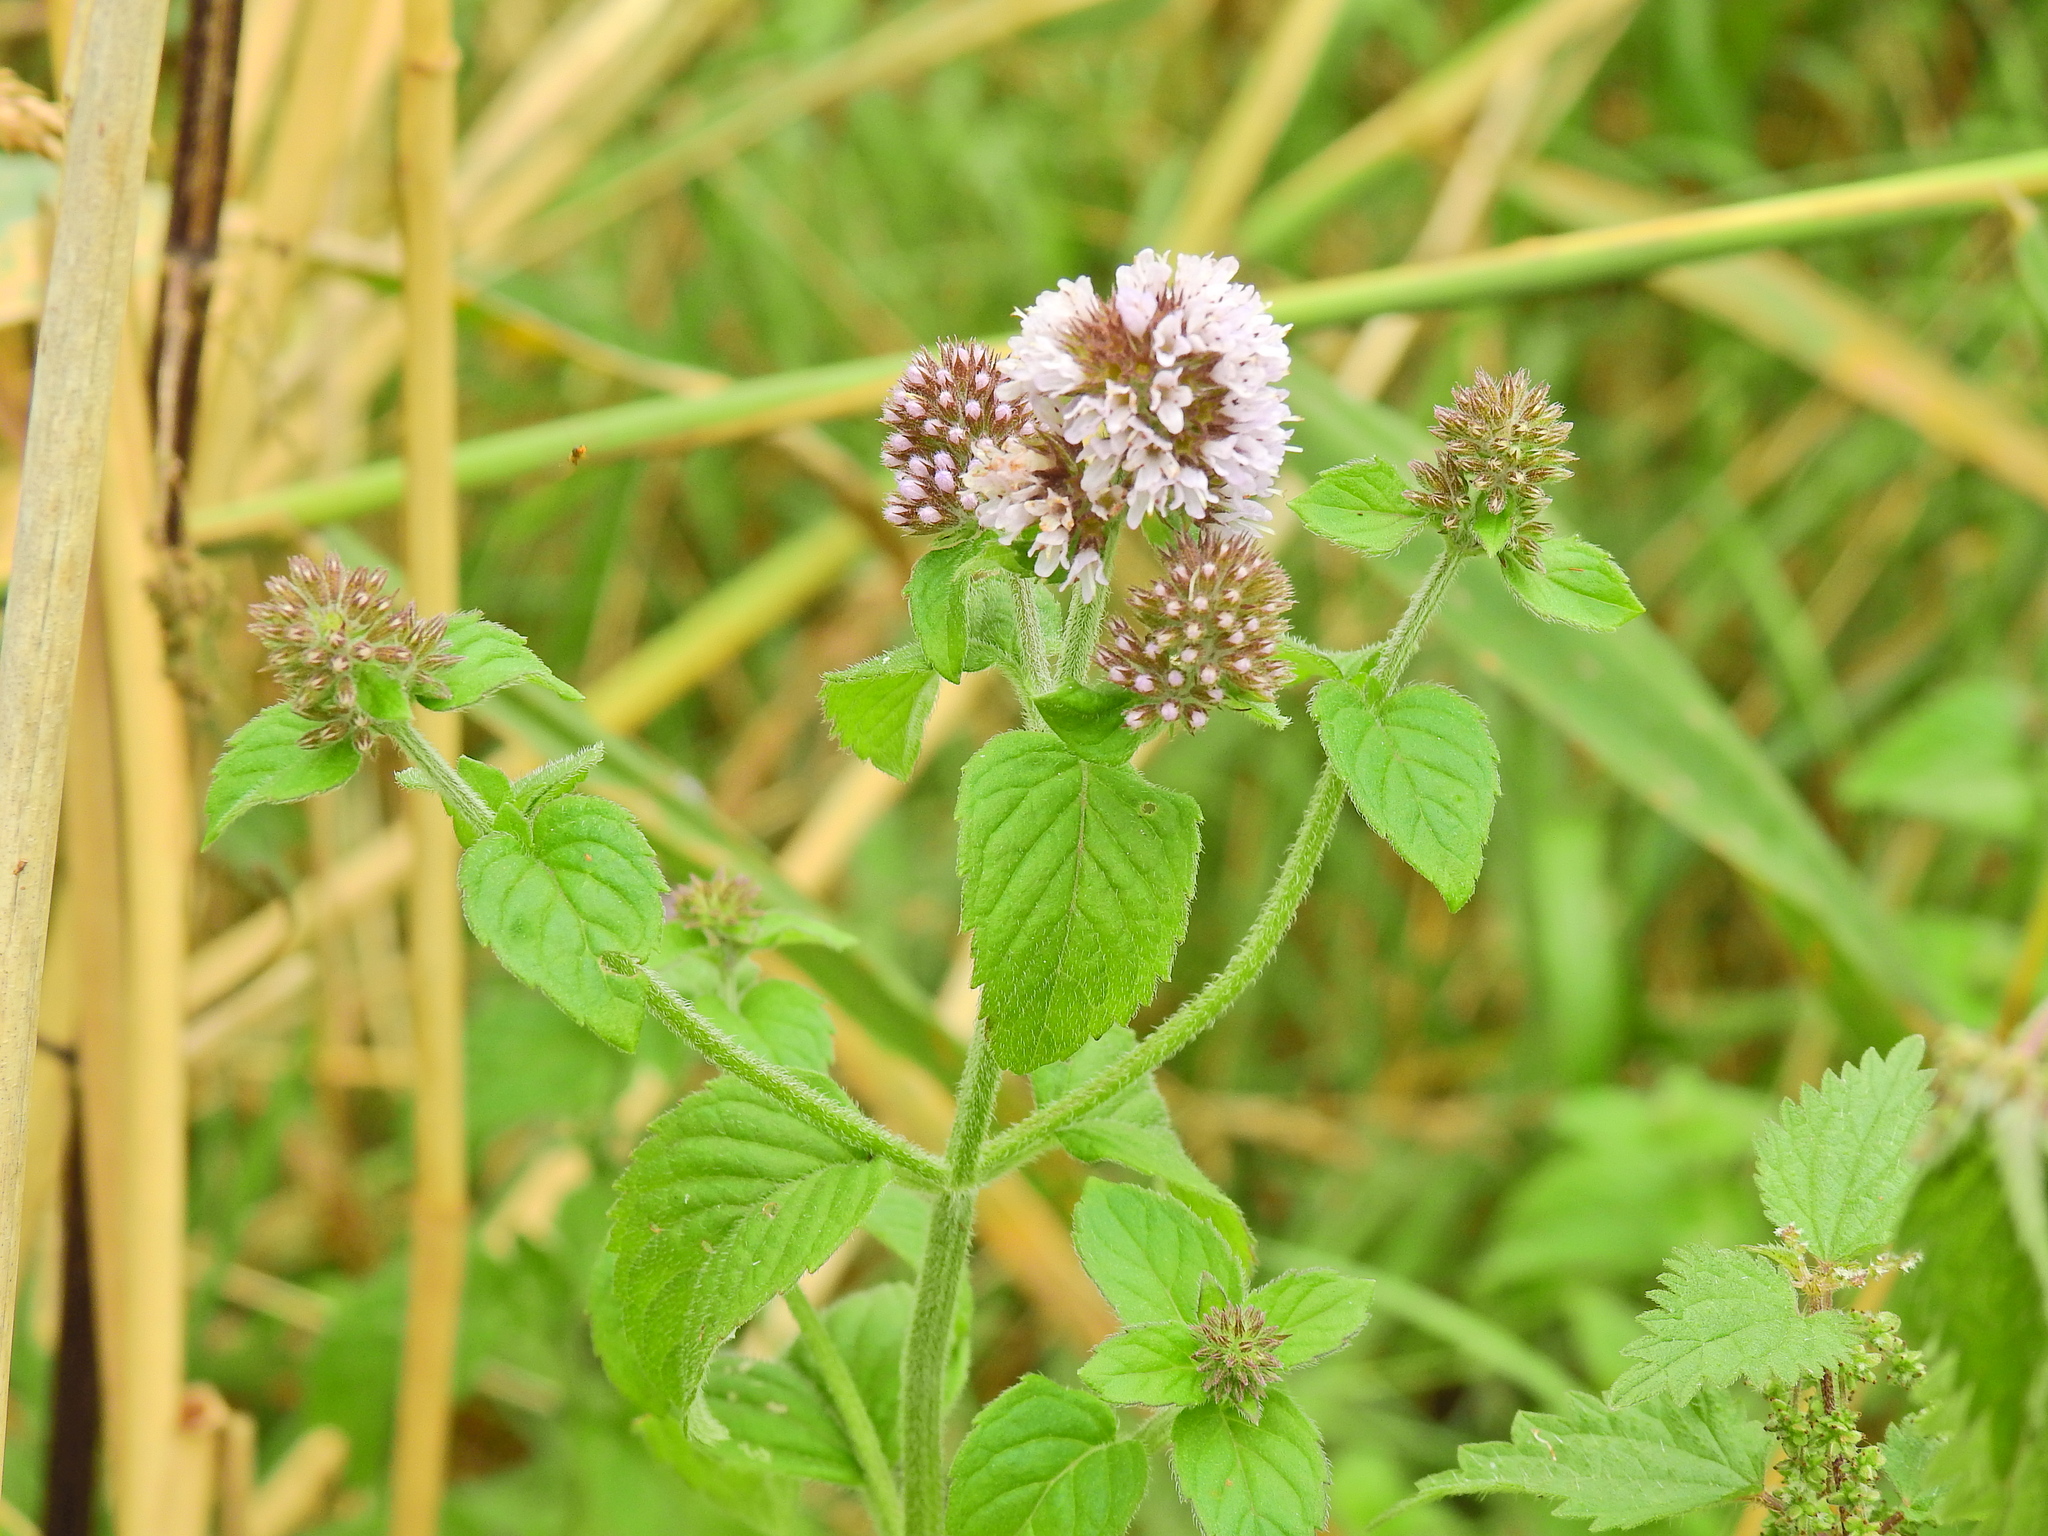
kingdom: Plantae
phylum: Tracheophyta
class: Magnoliopsida
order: Lamiales
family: Lamiaceae
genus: Mentha
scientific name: Mentha aquatica
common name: Water mint
